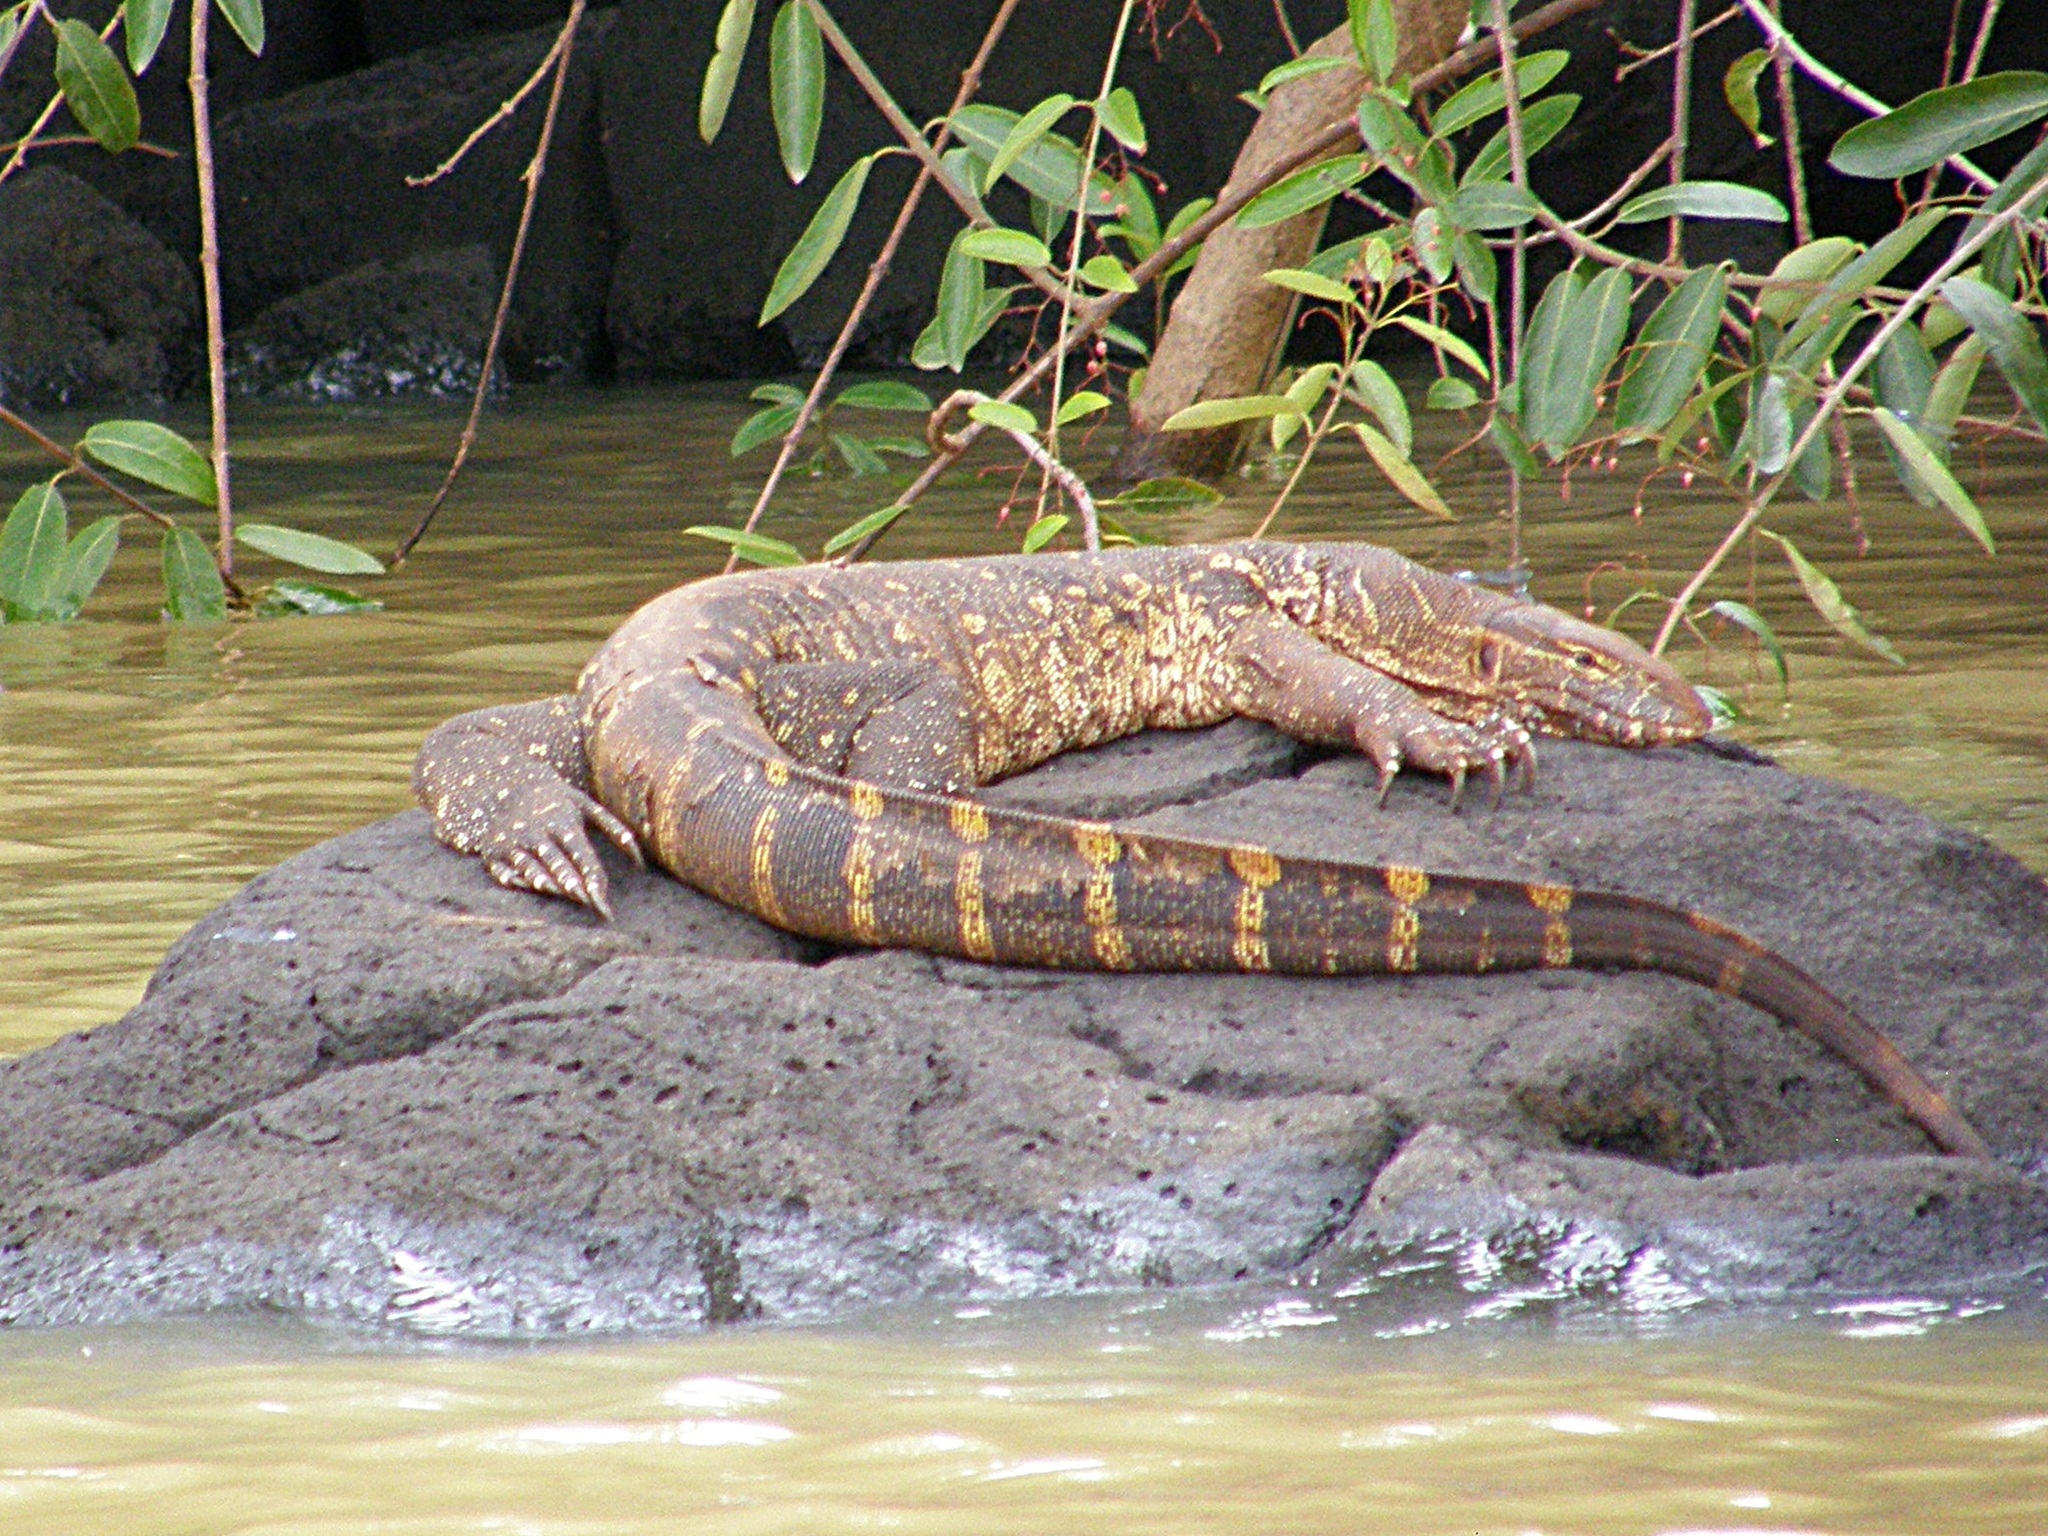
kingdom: Animalia
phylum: Chordata
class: Squamata
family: Varanidae
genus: Varanus
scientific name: Varanus niloticus
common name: Nile monitor
